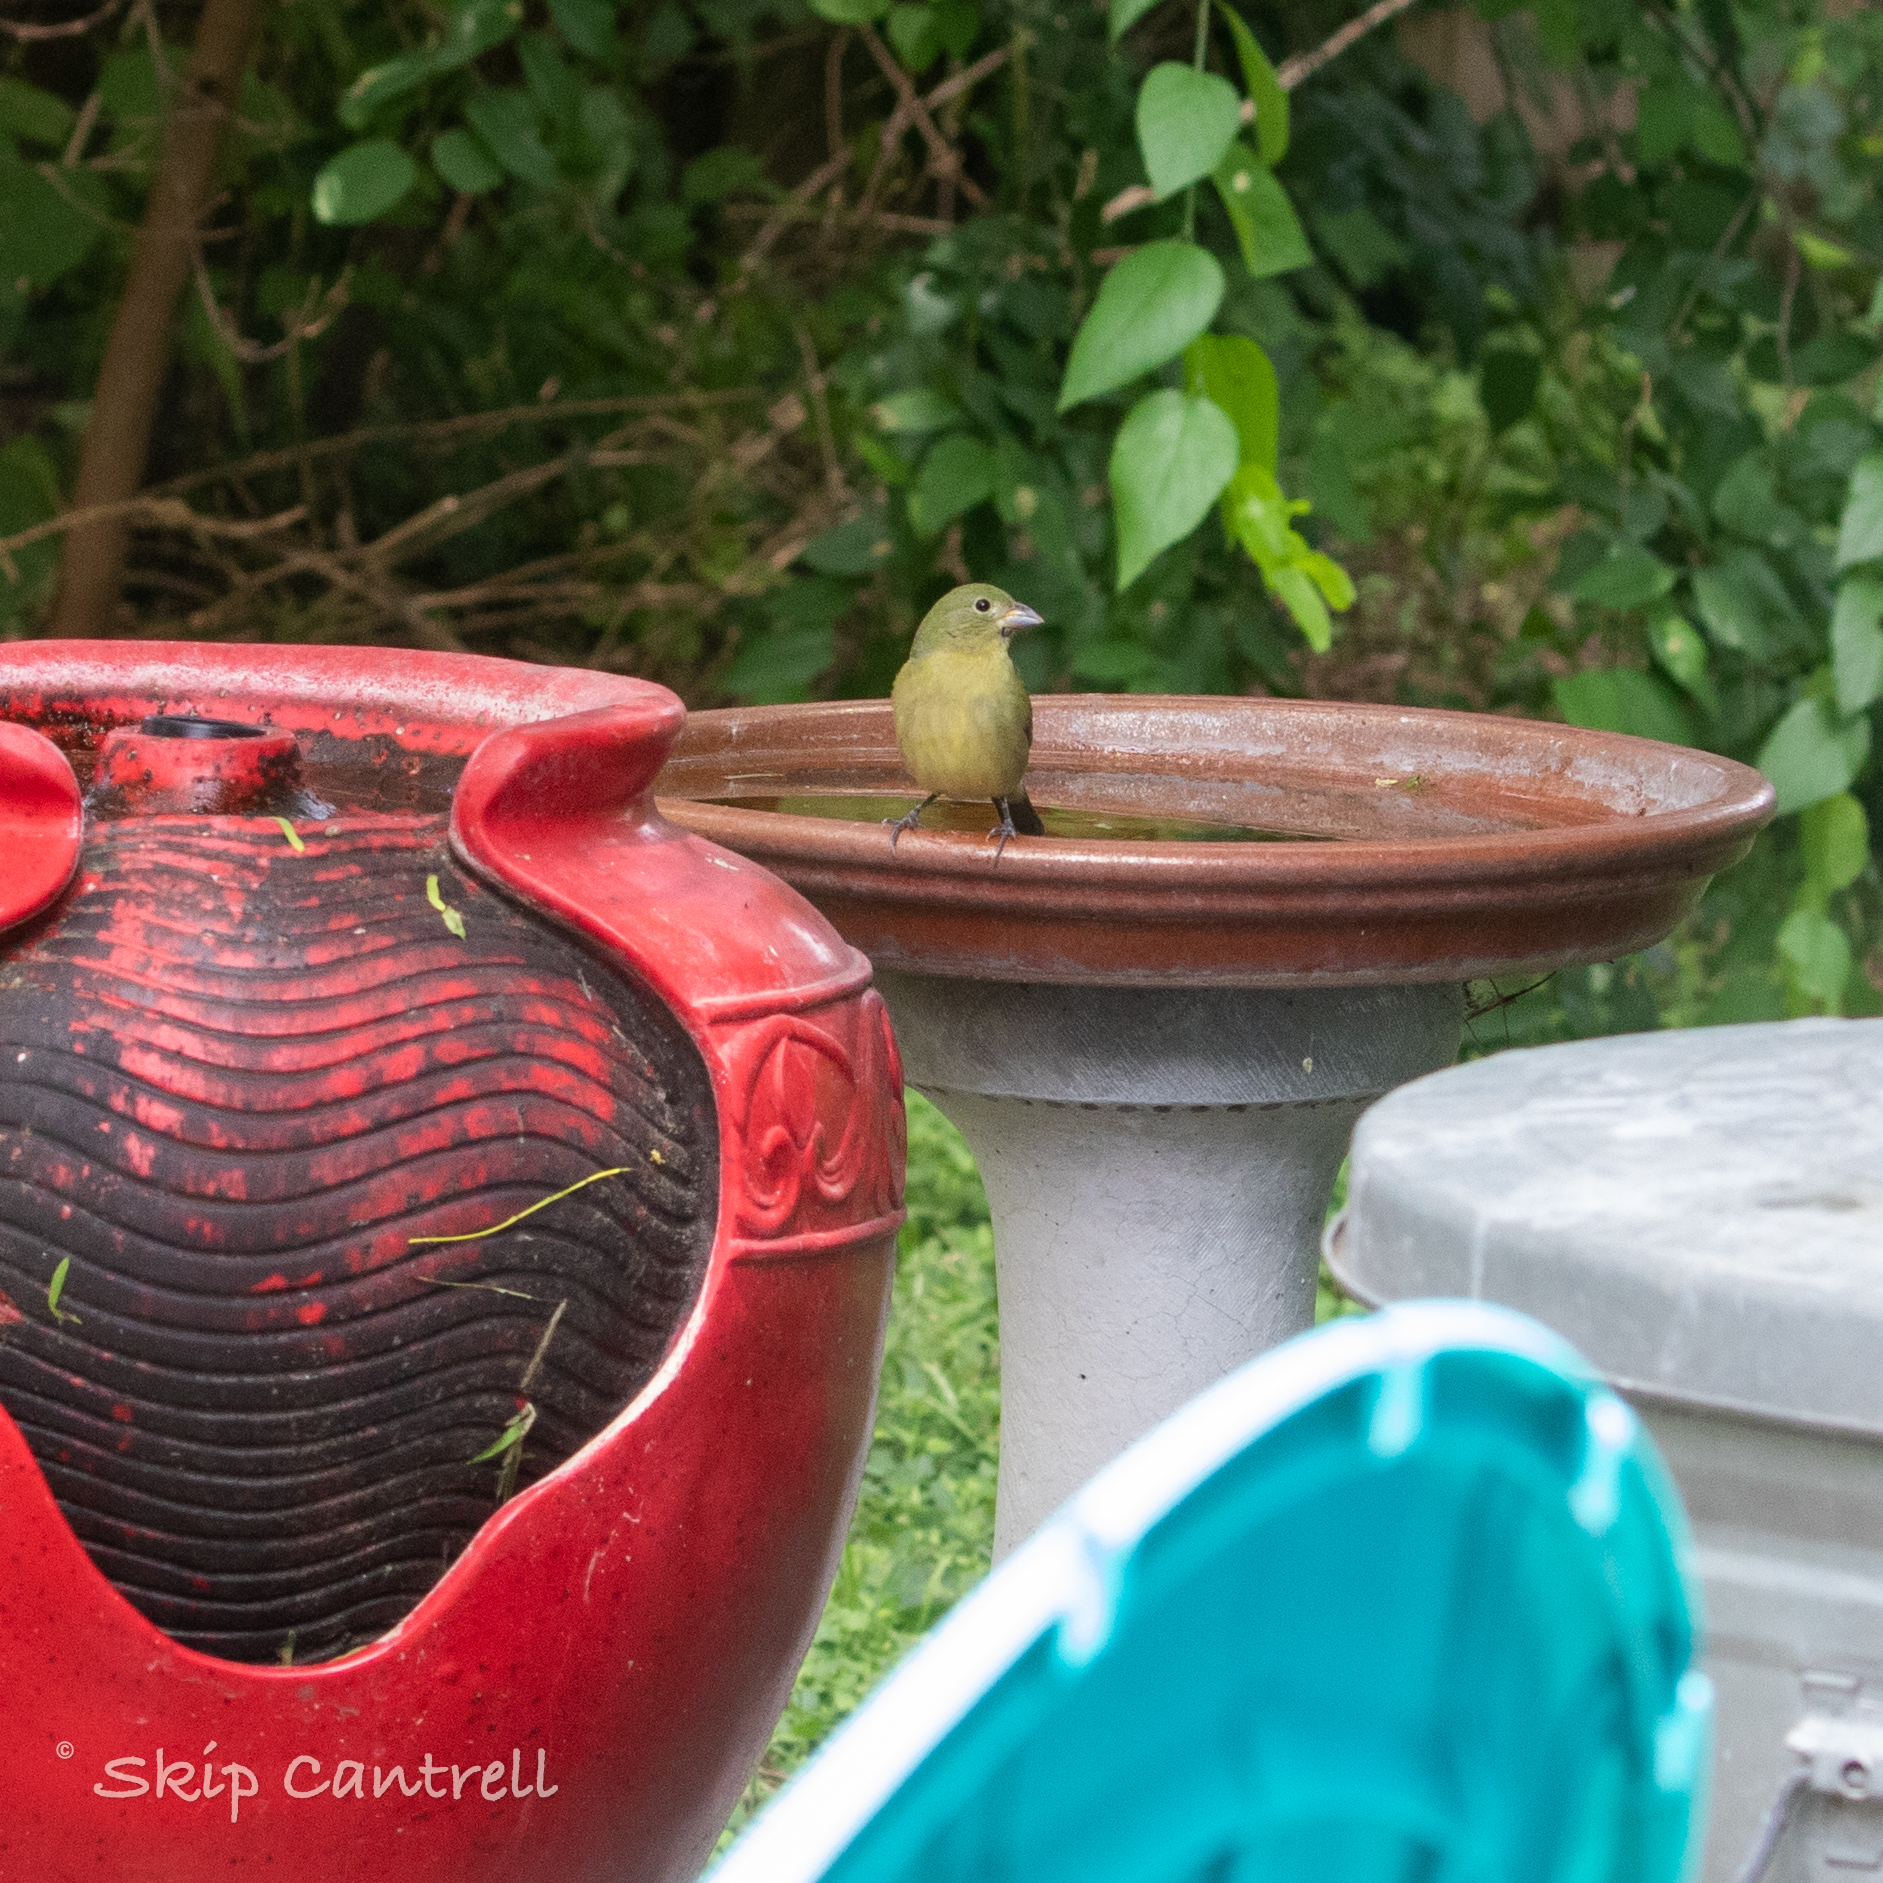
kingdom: Animalia
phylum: Chordata
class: Aves
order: Passeriformes
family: Cardinalidae
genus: Passerina
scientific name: Passerina ciris
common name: Painted bunting
